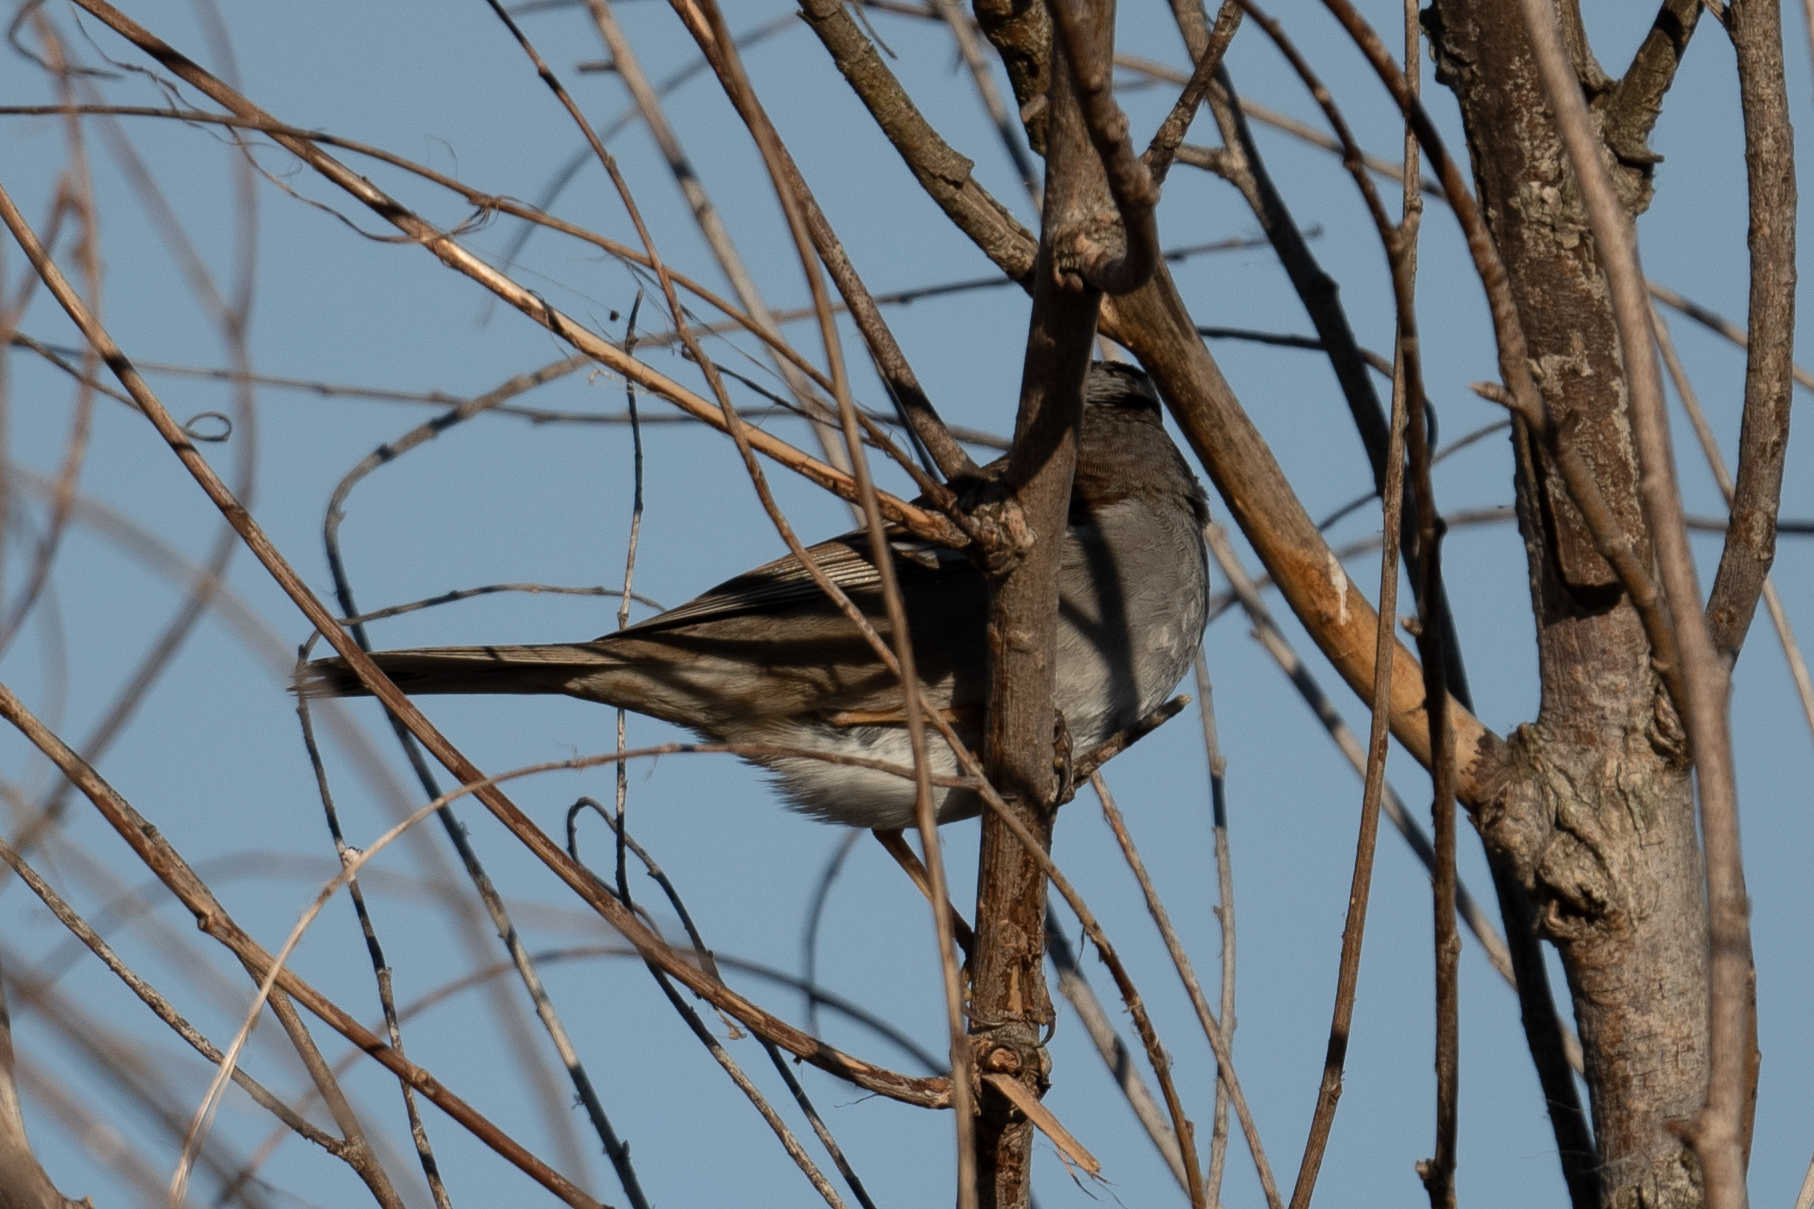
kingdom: Animalia
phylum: Chordata
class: Aves
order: Passeriformes
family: Passerellidae
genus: Zonotrichia
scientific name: Zonotrichia leucophrys
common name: White-crowned sparrow
